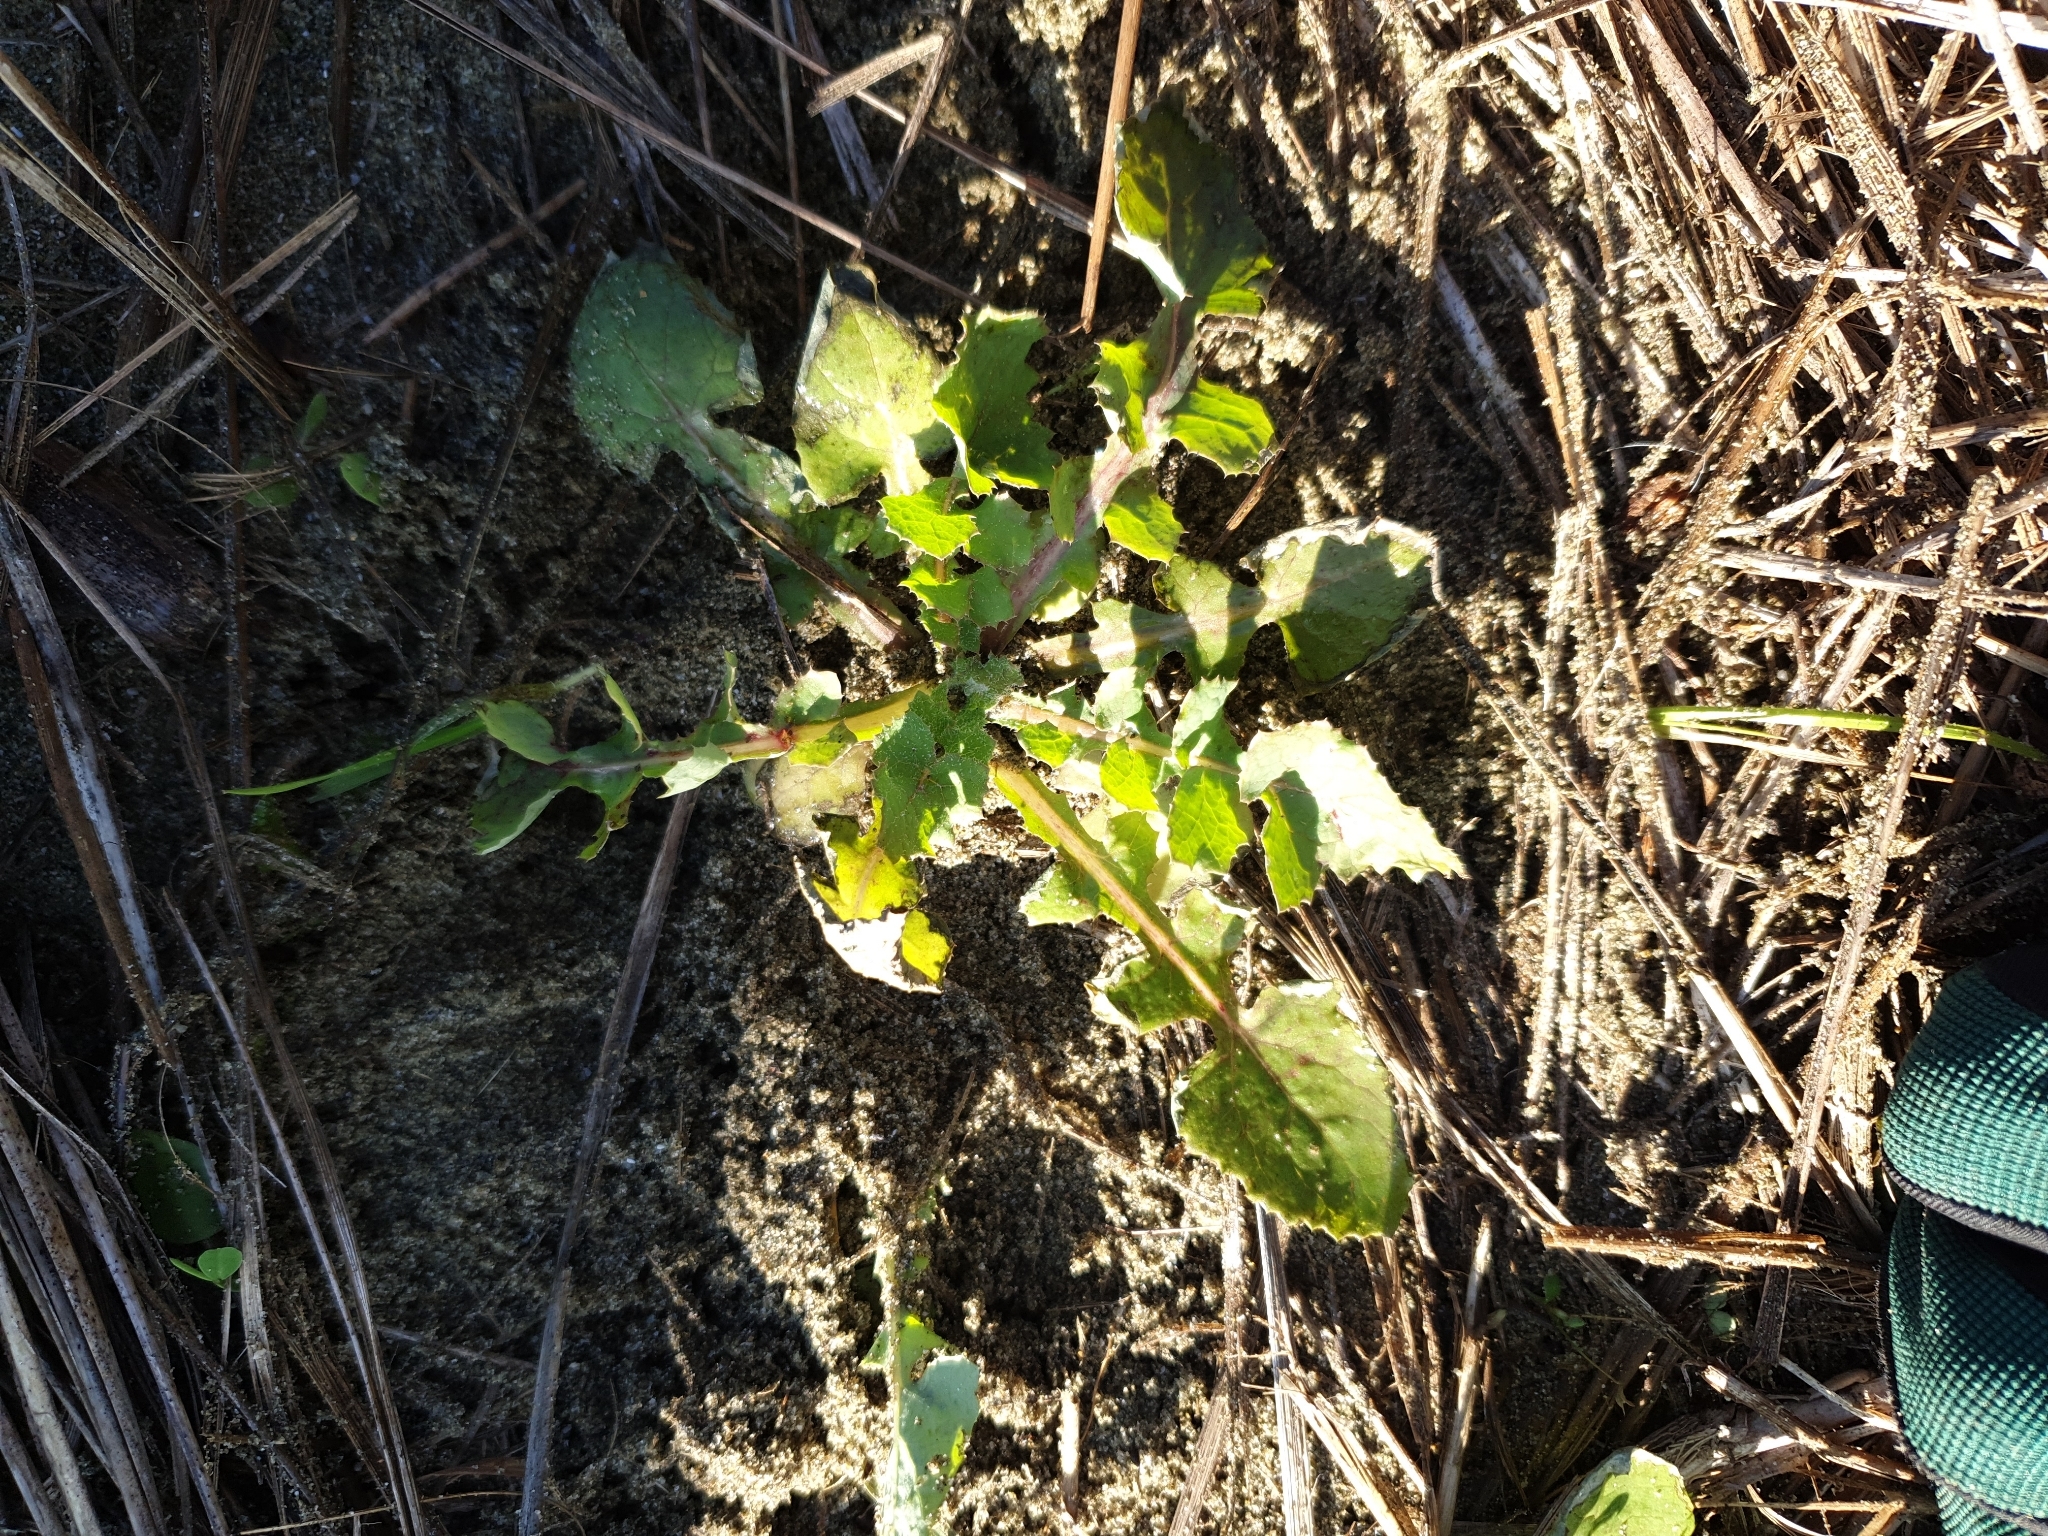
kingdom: Plantae
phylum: Tracheophyta
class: Magnoliopsida
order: Asterales
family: Asteraceae
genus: Sonchus
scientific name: Sonchus oleraceus
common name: Common sowthistle
